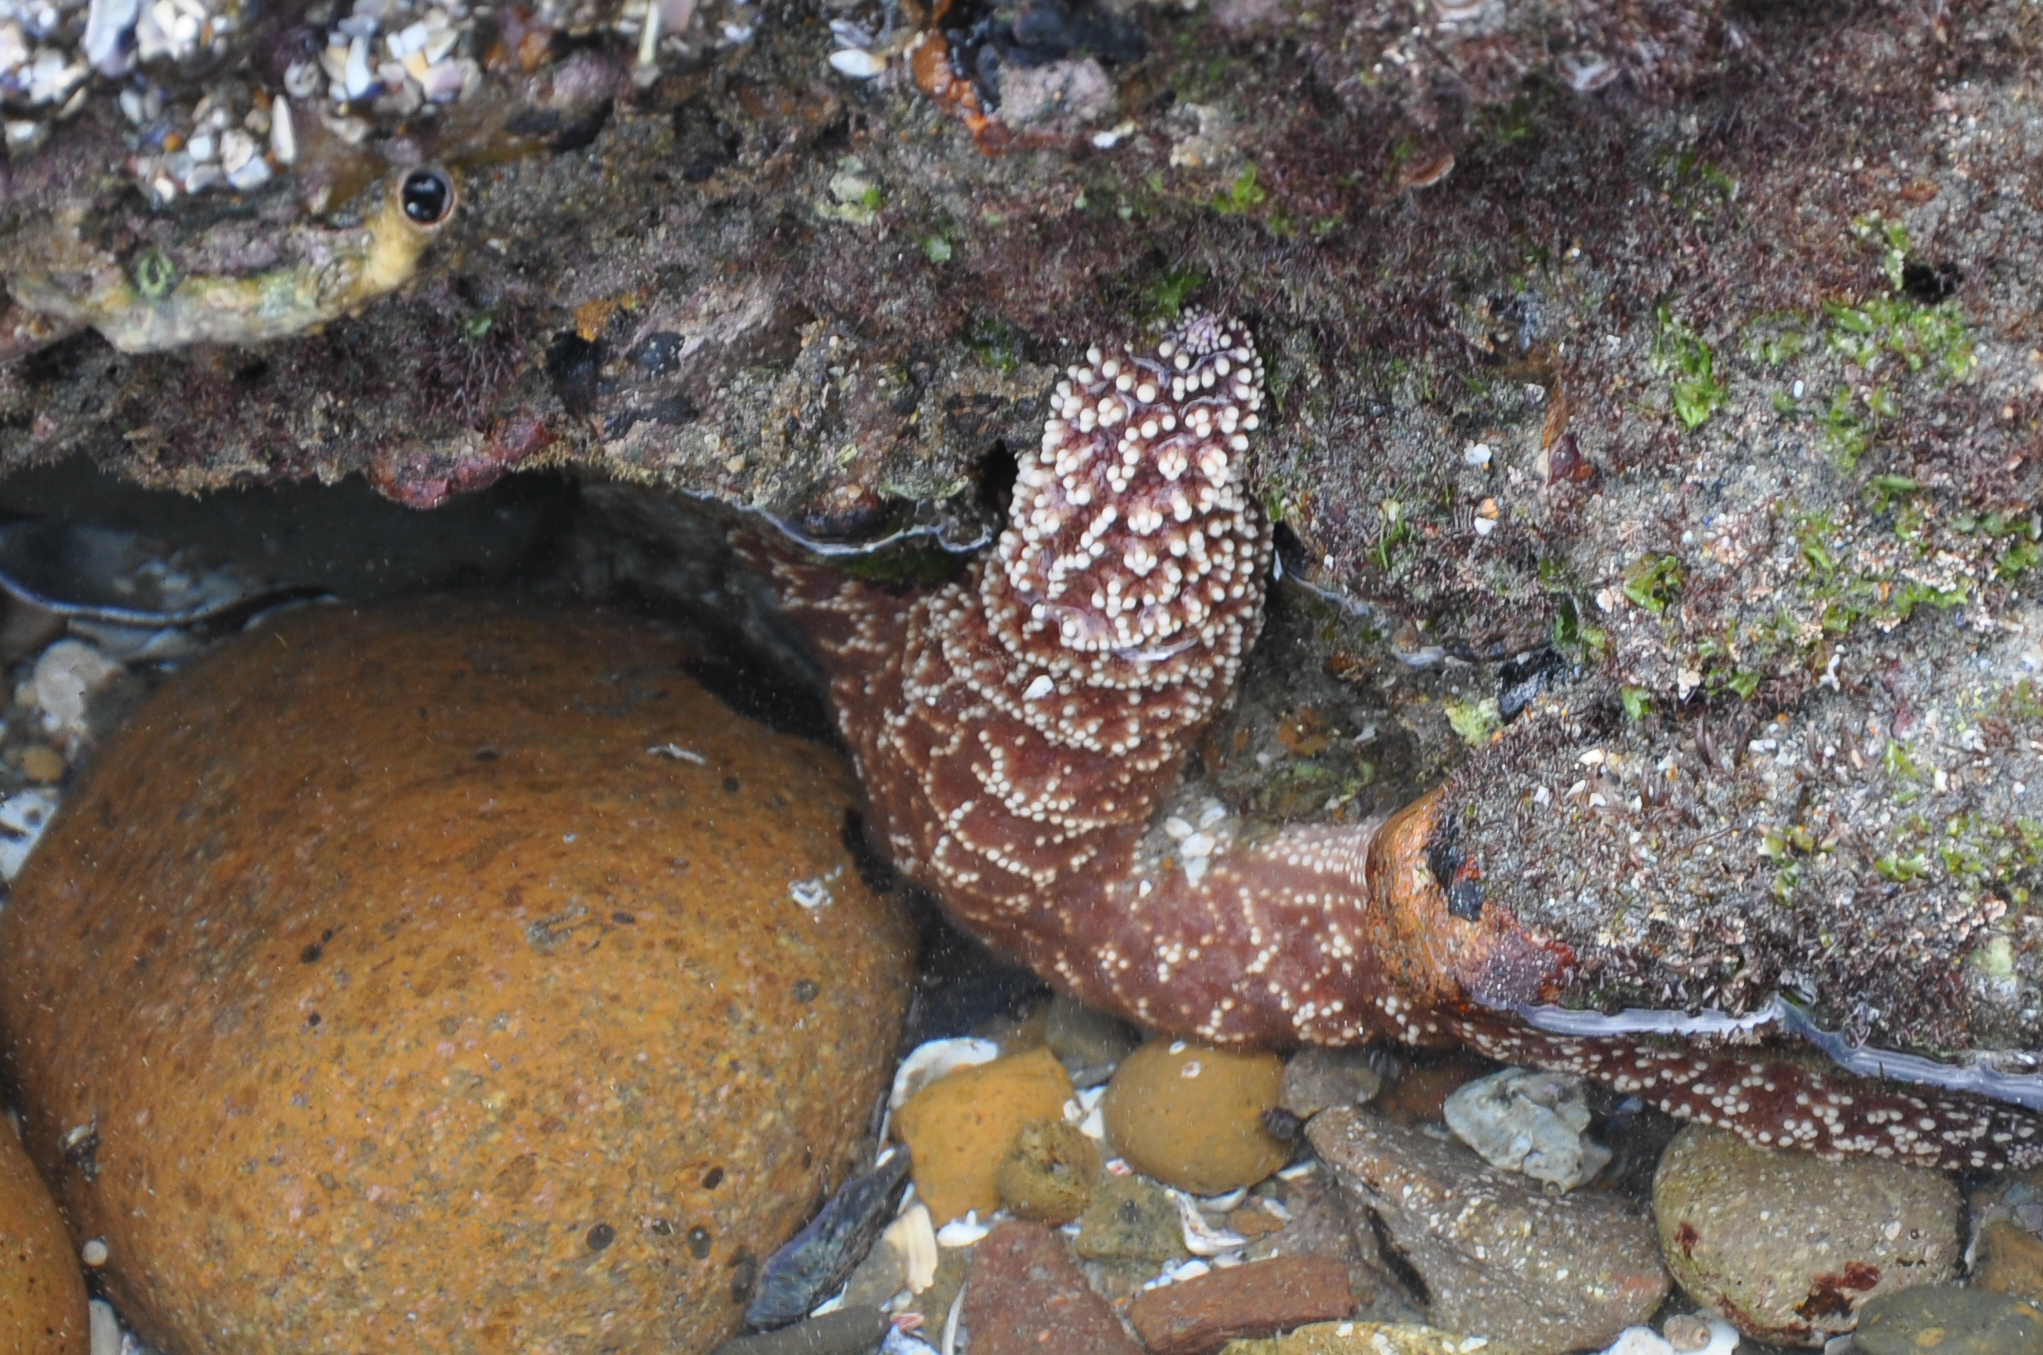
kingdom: Animalia
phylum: Echinodermata
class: Asteroidea
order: Forcipulatida
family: Asteriidae
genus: Pisaster
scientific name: Pisaster ochraceus
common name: Ochre stars
